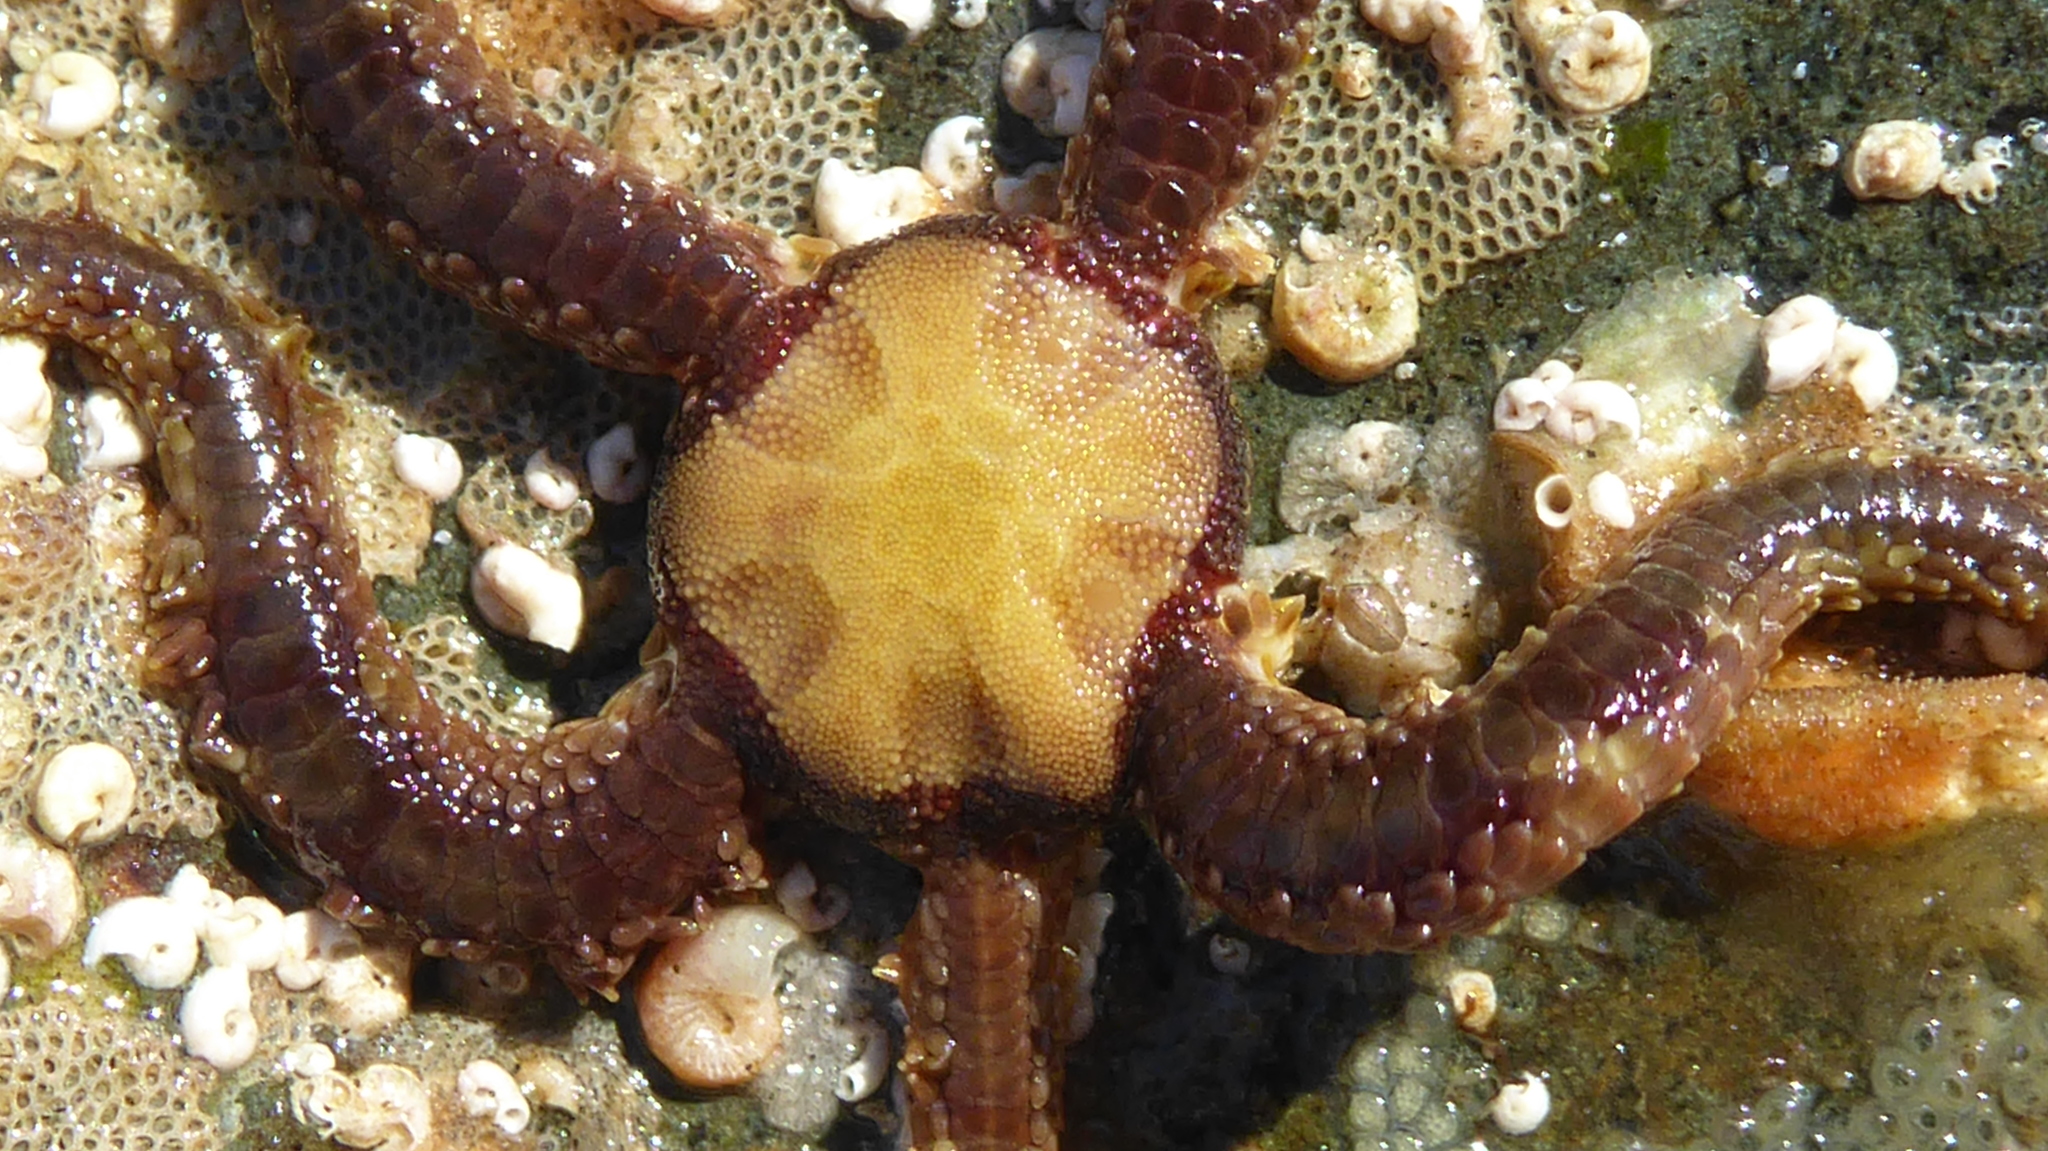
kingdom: Animalia
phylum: Echinodermata
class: Ophiuroidea
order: Amphilepidida
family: Ophiopholidae
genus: Ophiopholis
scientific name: Ophiopholis aculeata
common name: Crevice brittlestar
